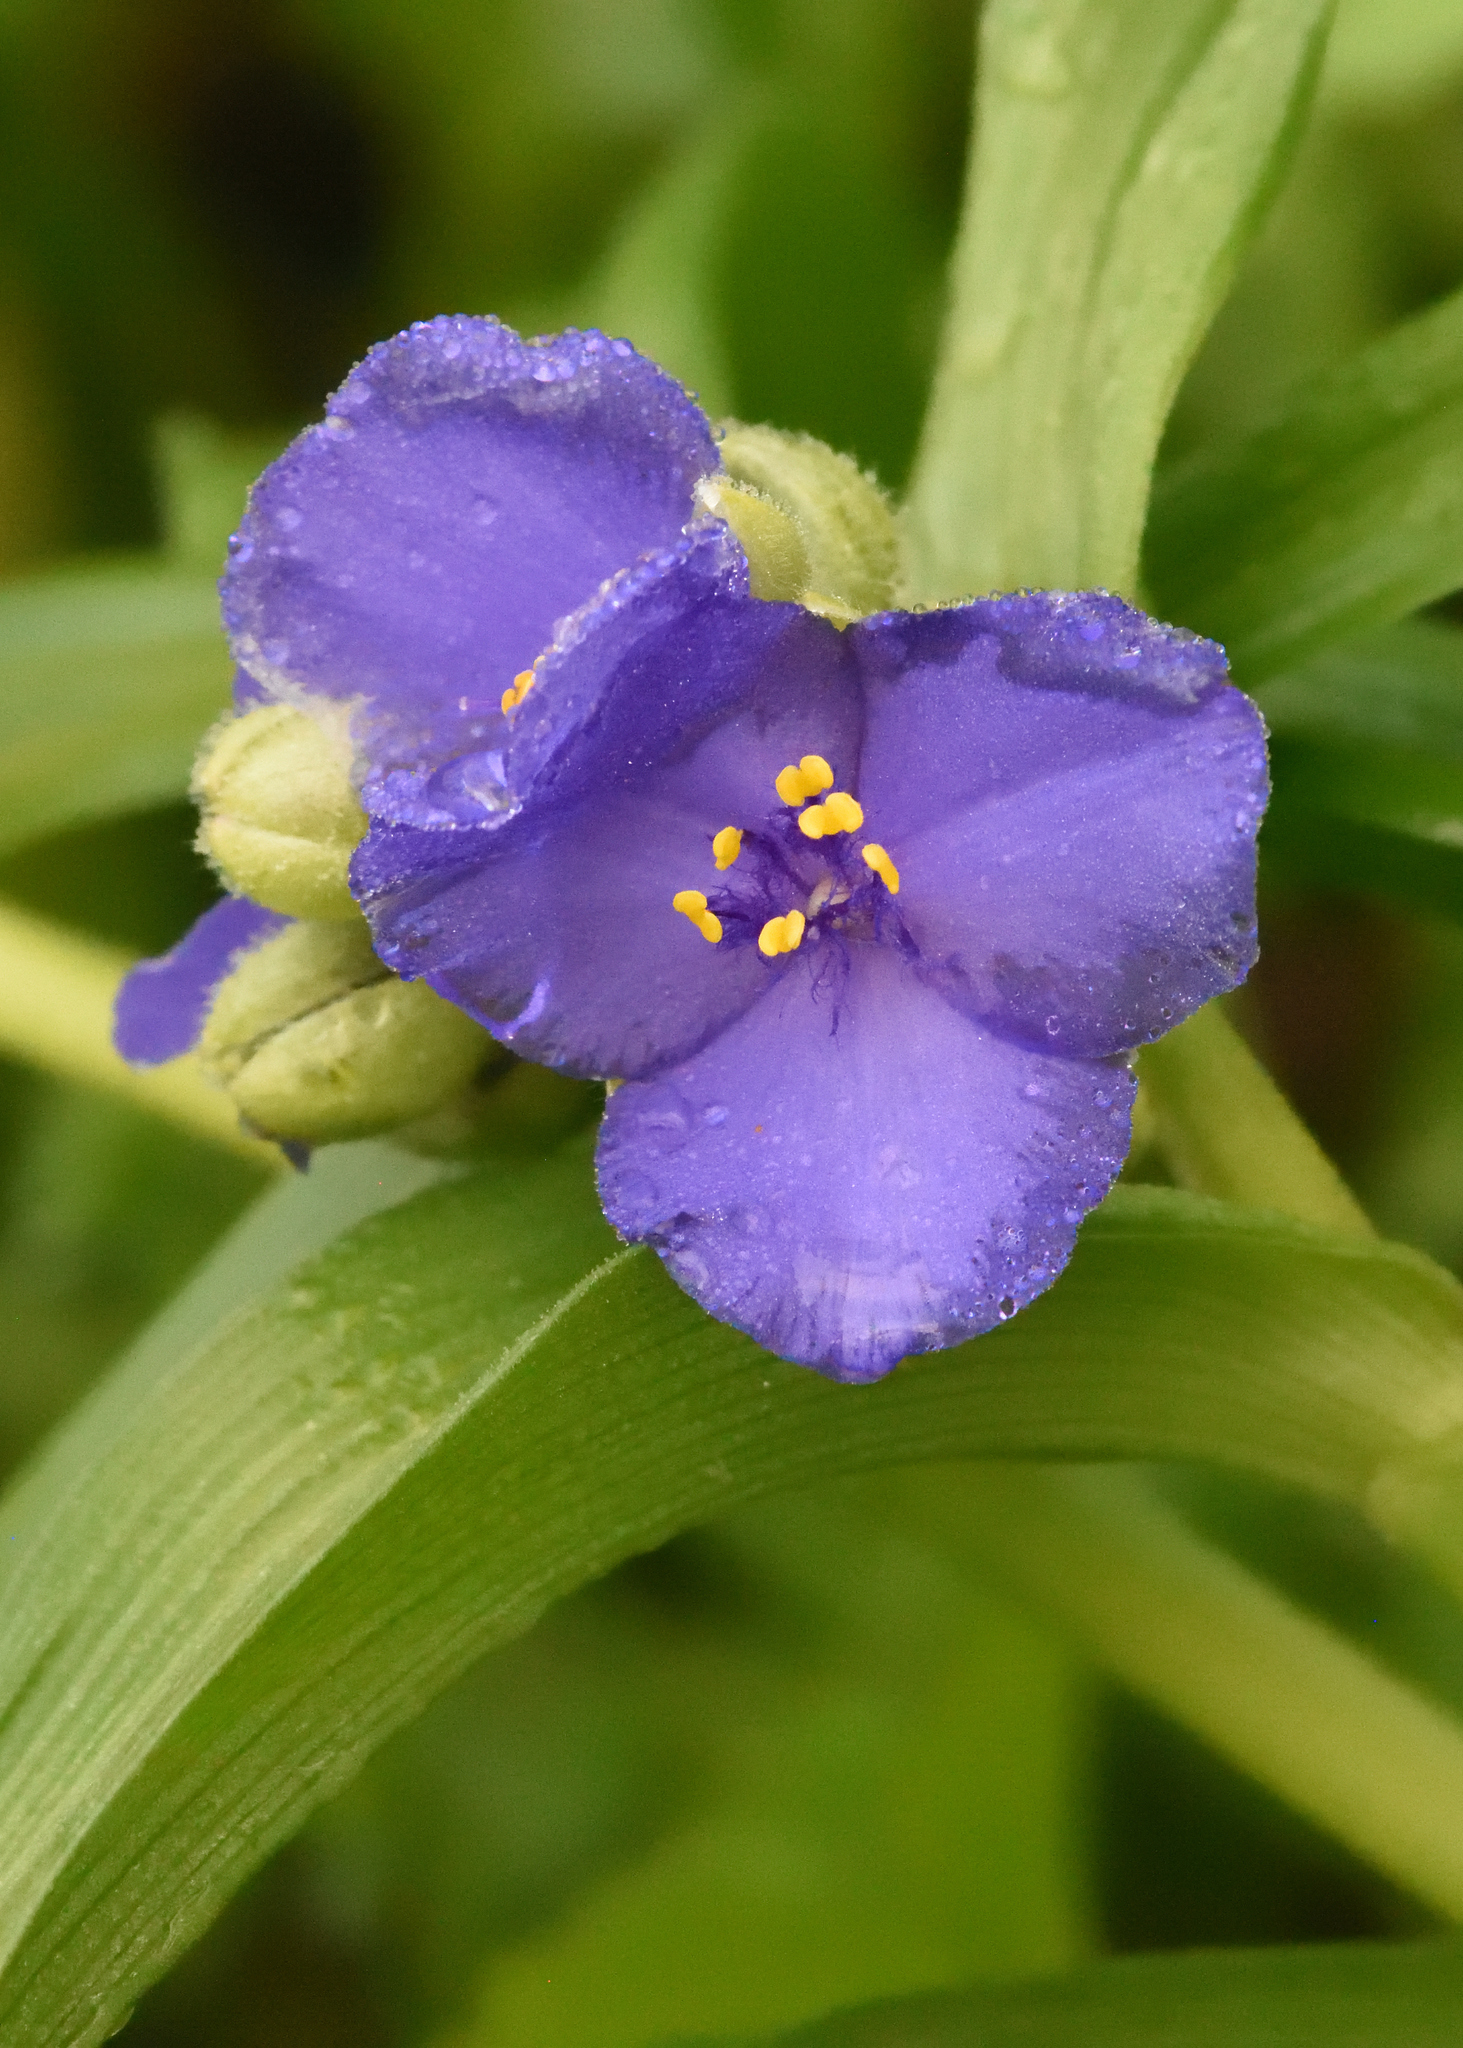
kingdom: Plantae
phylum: Tracheophyta
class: Liliopsida
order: Commelinales
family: Commelinaceae
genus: Tradescantia
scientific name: Tradescantia virginiana
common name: Spiderwort
